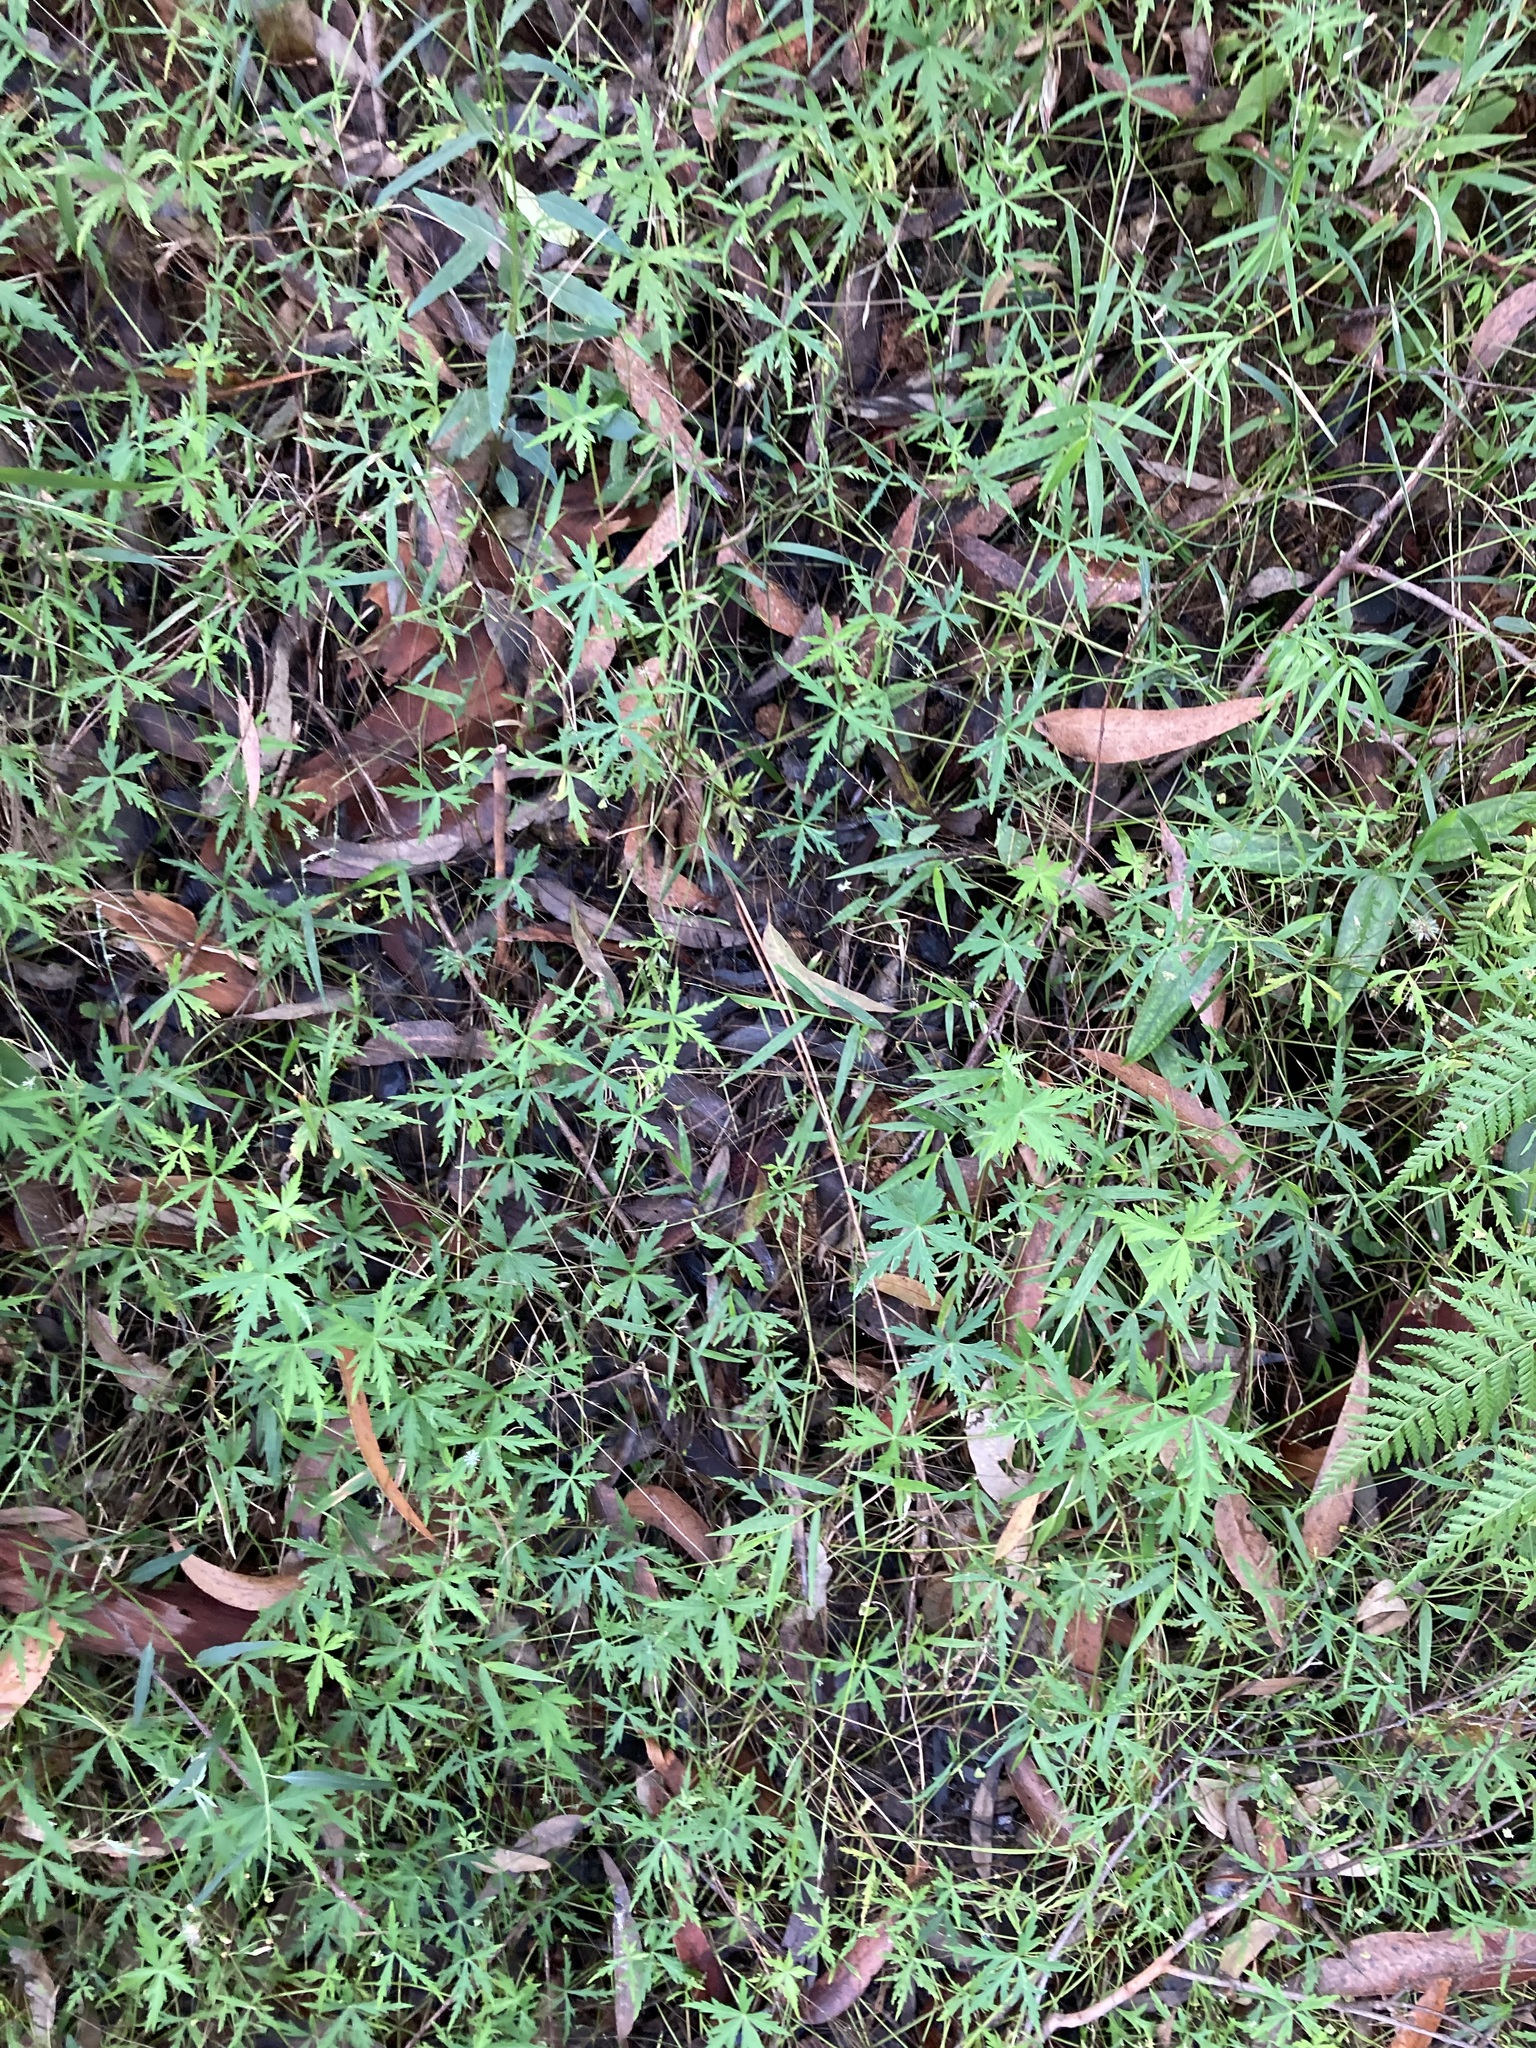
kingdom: Plantae
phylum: Tracheophyta
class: Magnoliopsida
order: Apiales
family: Araliaceae
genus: Hydrocotyle
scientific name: Hydrocotyle geraniifolia
